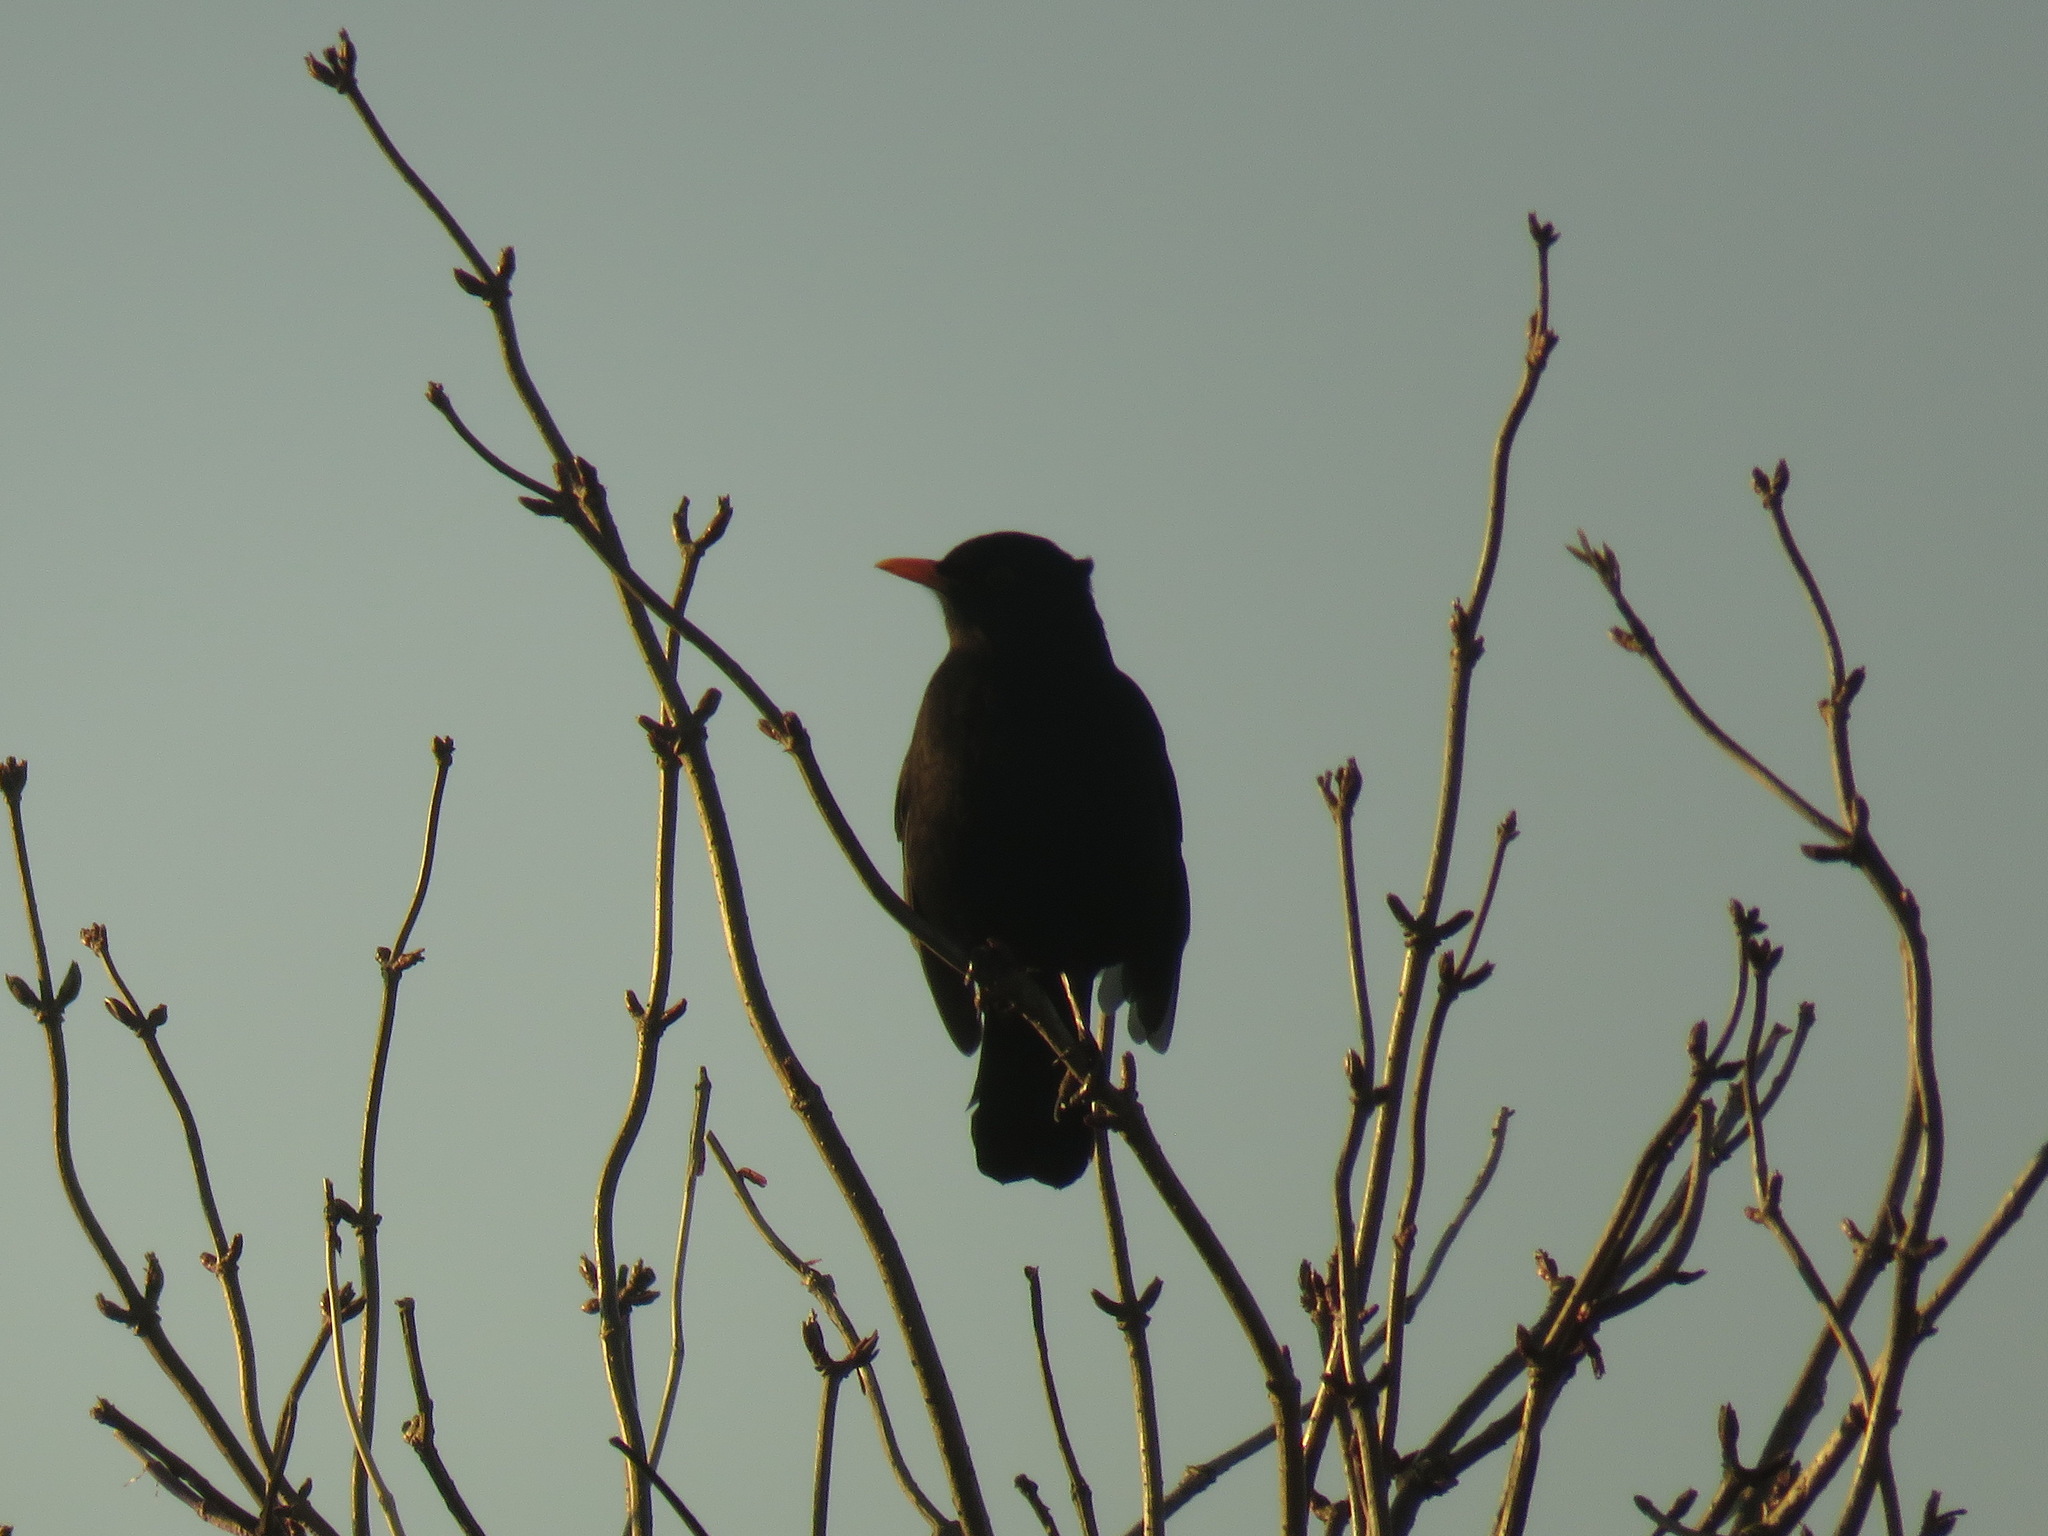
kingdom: Animalia
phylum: Chordata
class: Aves
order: Passeriformes
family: Turdidae
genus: Turdus
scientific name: Turdus merula
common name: Common blackbird
